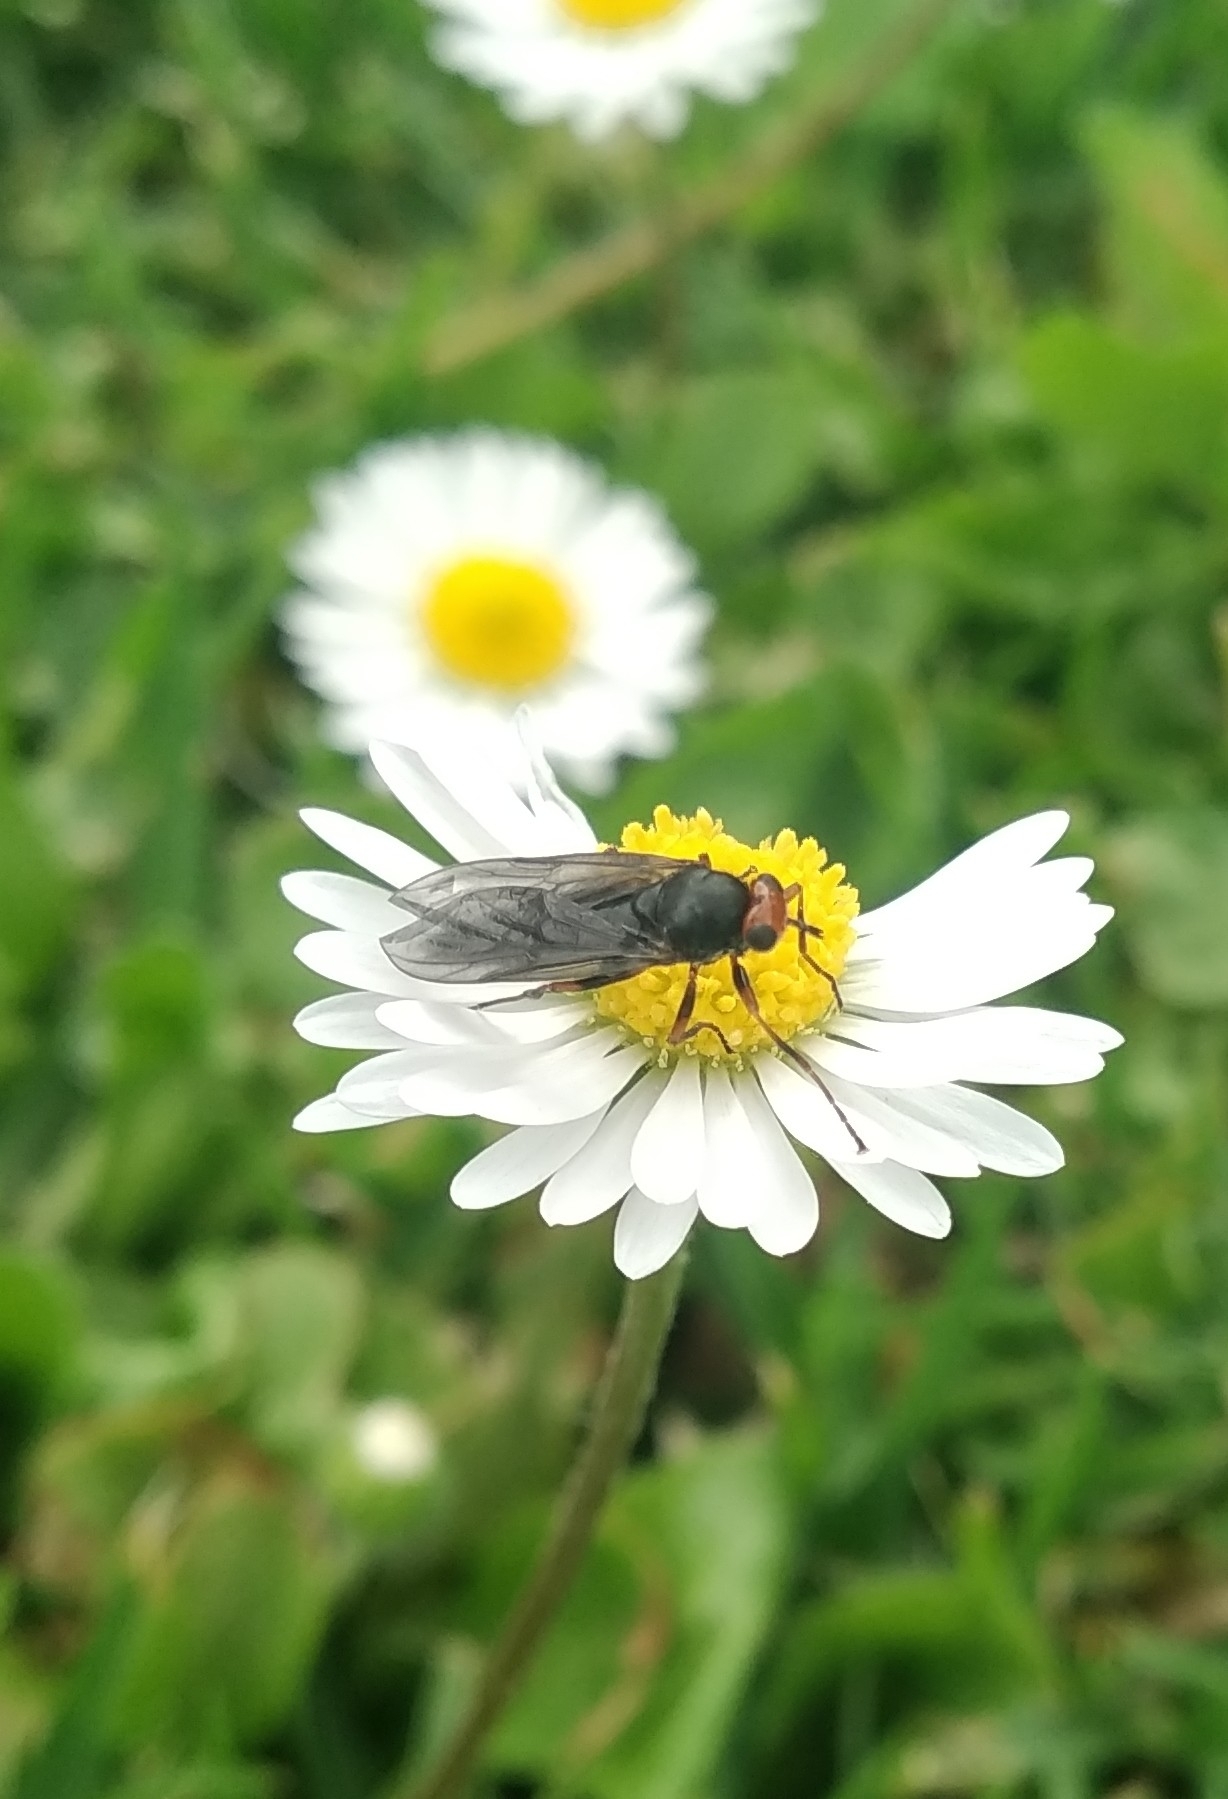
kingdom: Animalia
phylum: Arthropoda
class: Insecta
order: Diptera
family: Stratiomyidae
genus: Inopus
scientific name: Inopus rubriceps
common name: Soldier fly
